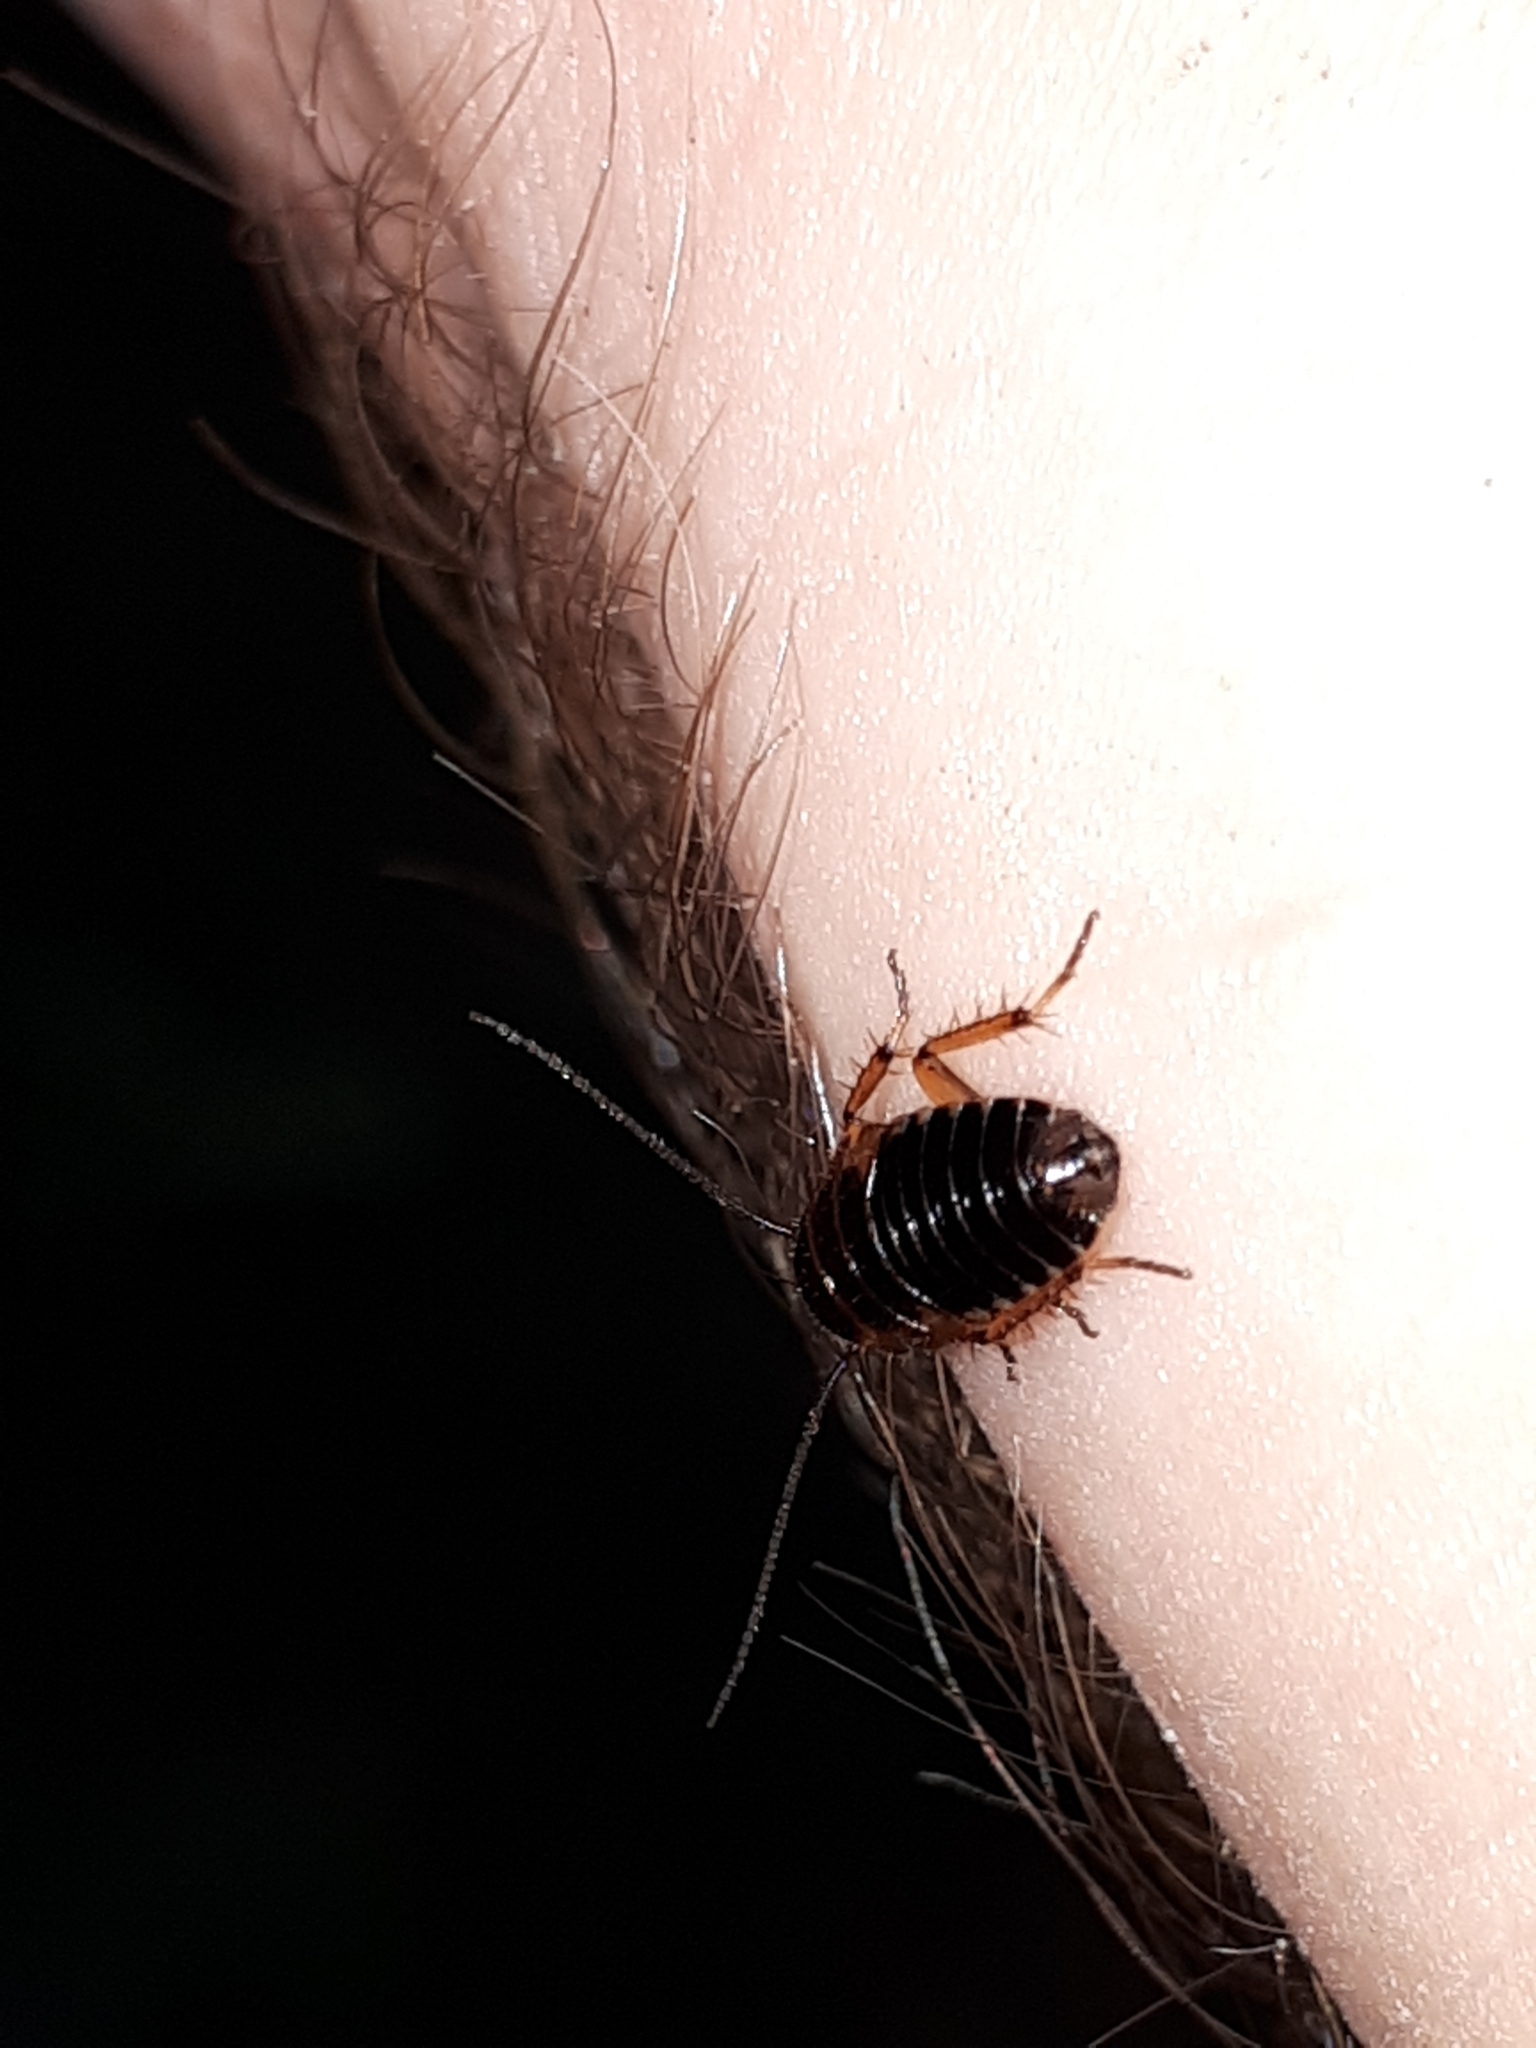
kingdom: Animalia
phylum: Arthropoda
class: Insecta
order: Blattodea
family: Ectobiidae
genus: Ectobius
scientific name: Ectobius sylvestris
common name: Forest cockroach
